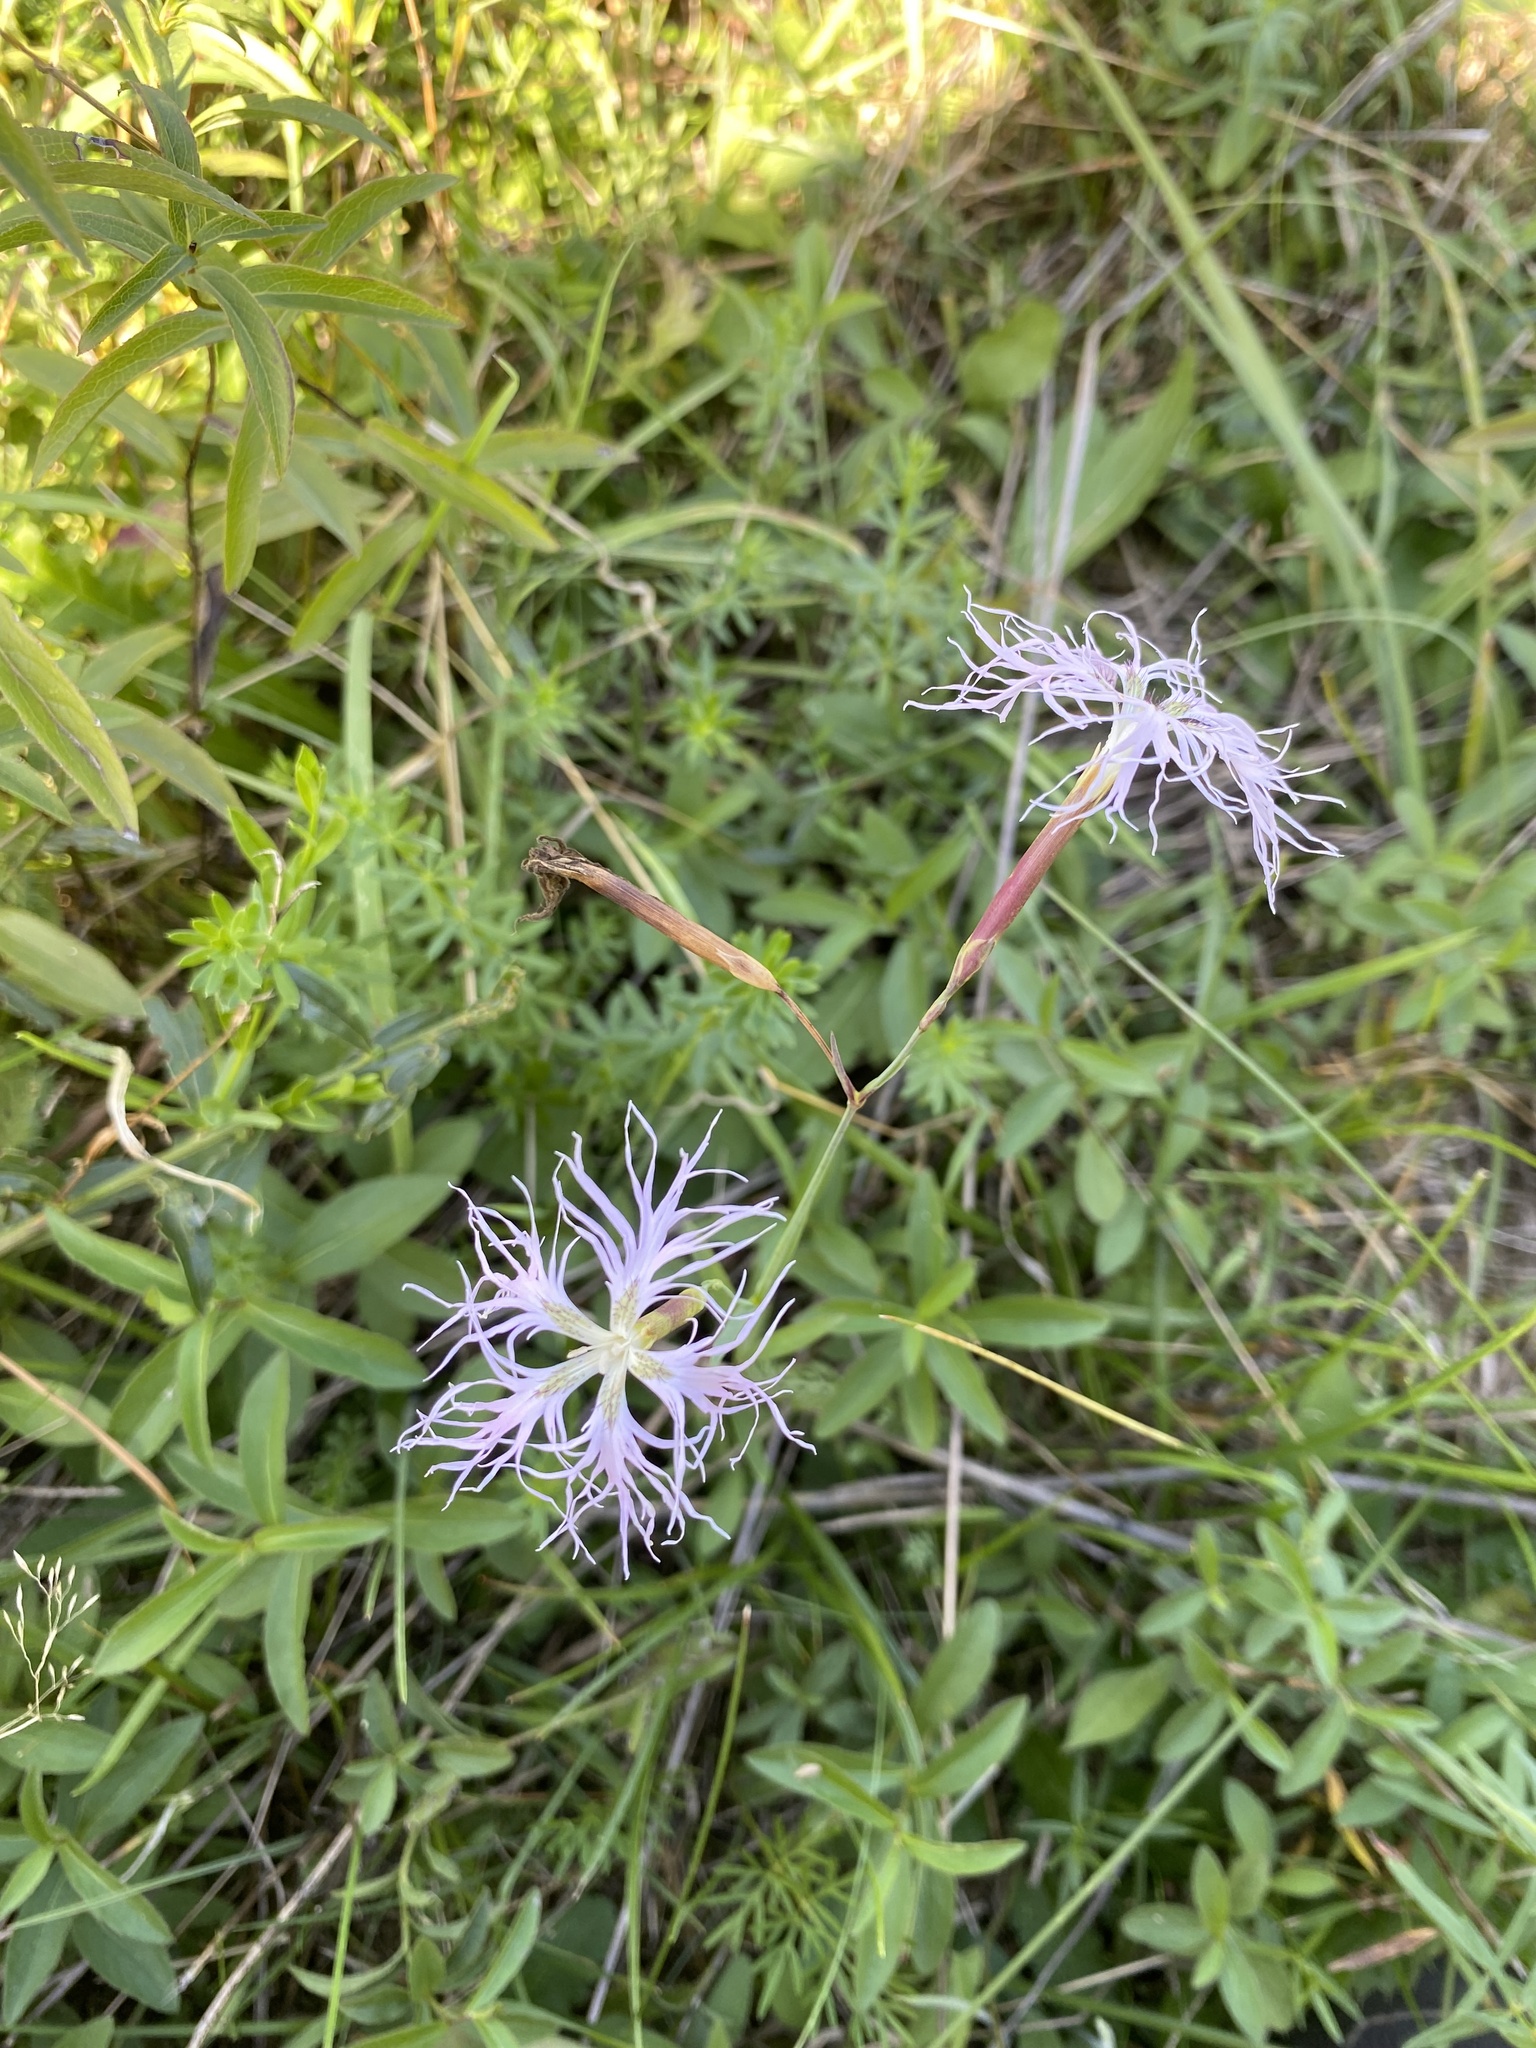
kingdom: Plantae
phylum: Tracheophyta
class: Magnoliopsida
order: Caryophyllales
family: Caryophyllaceae
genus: Dianthus
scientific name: Dianthus superbus
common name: Fringed pink
